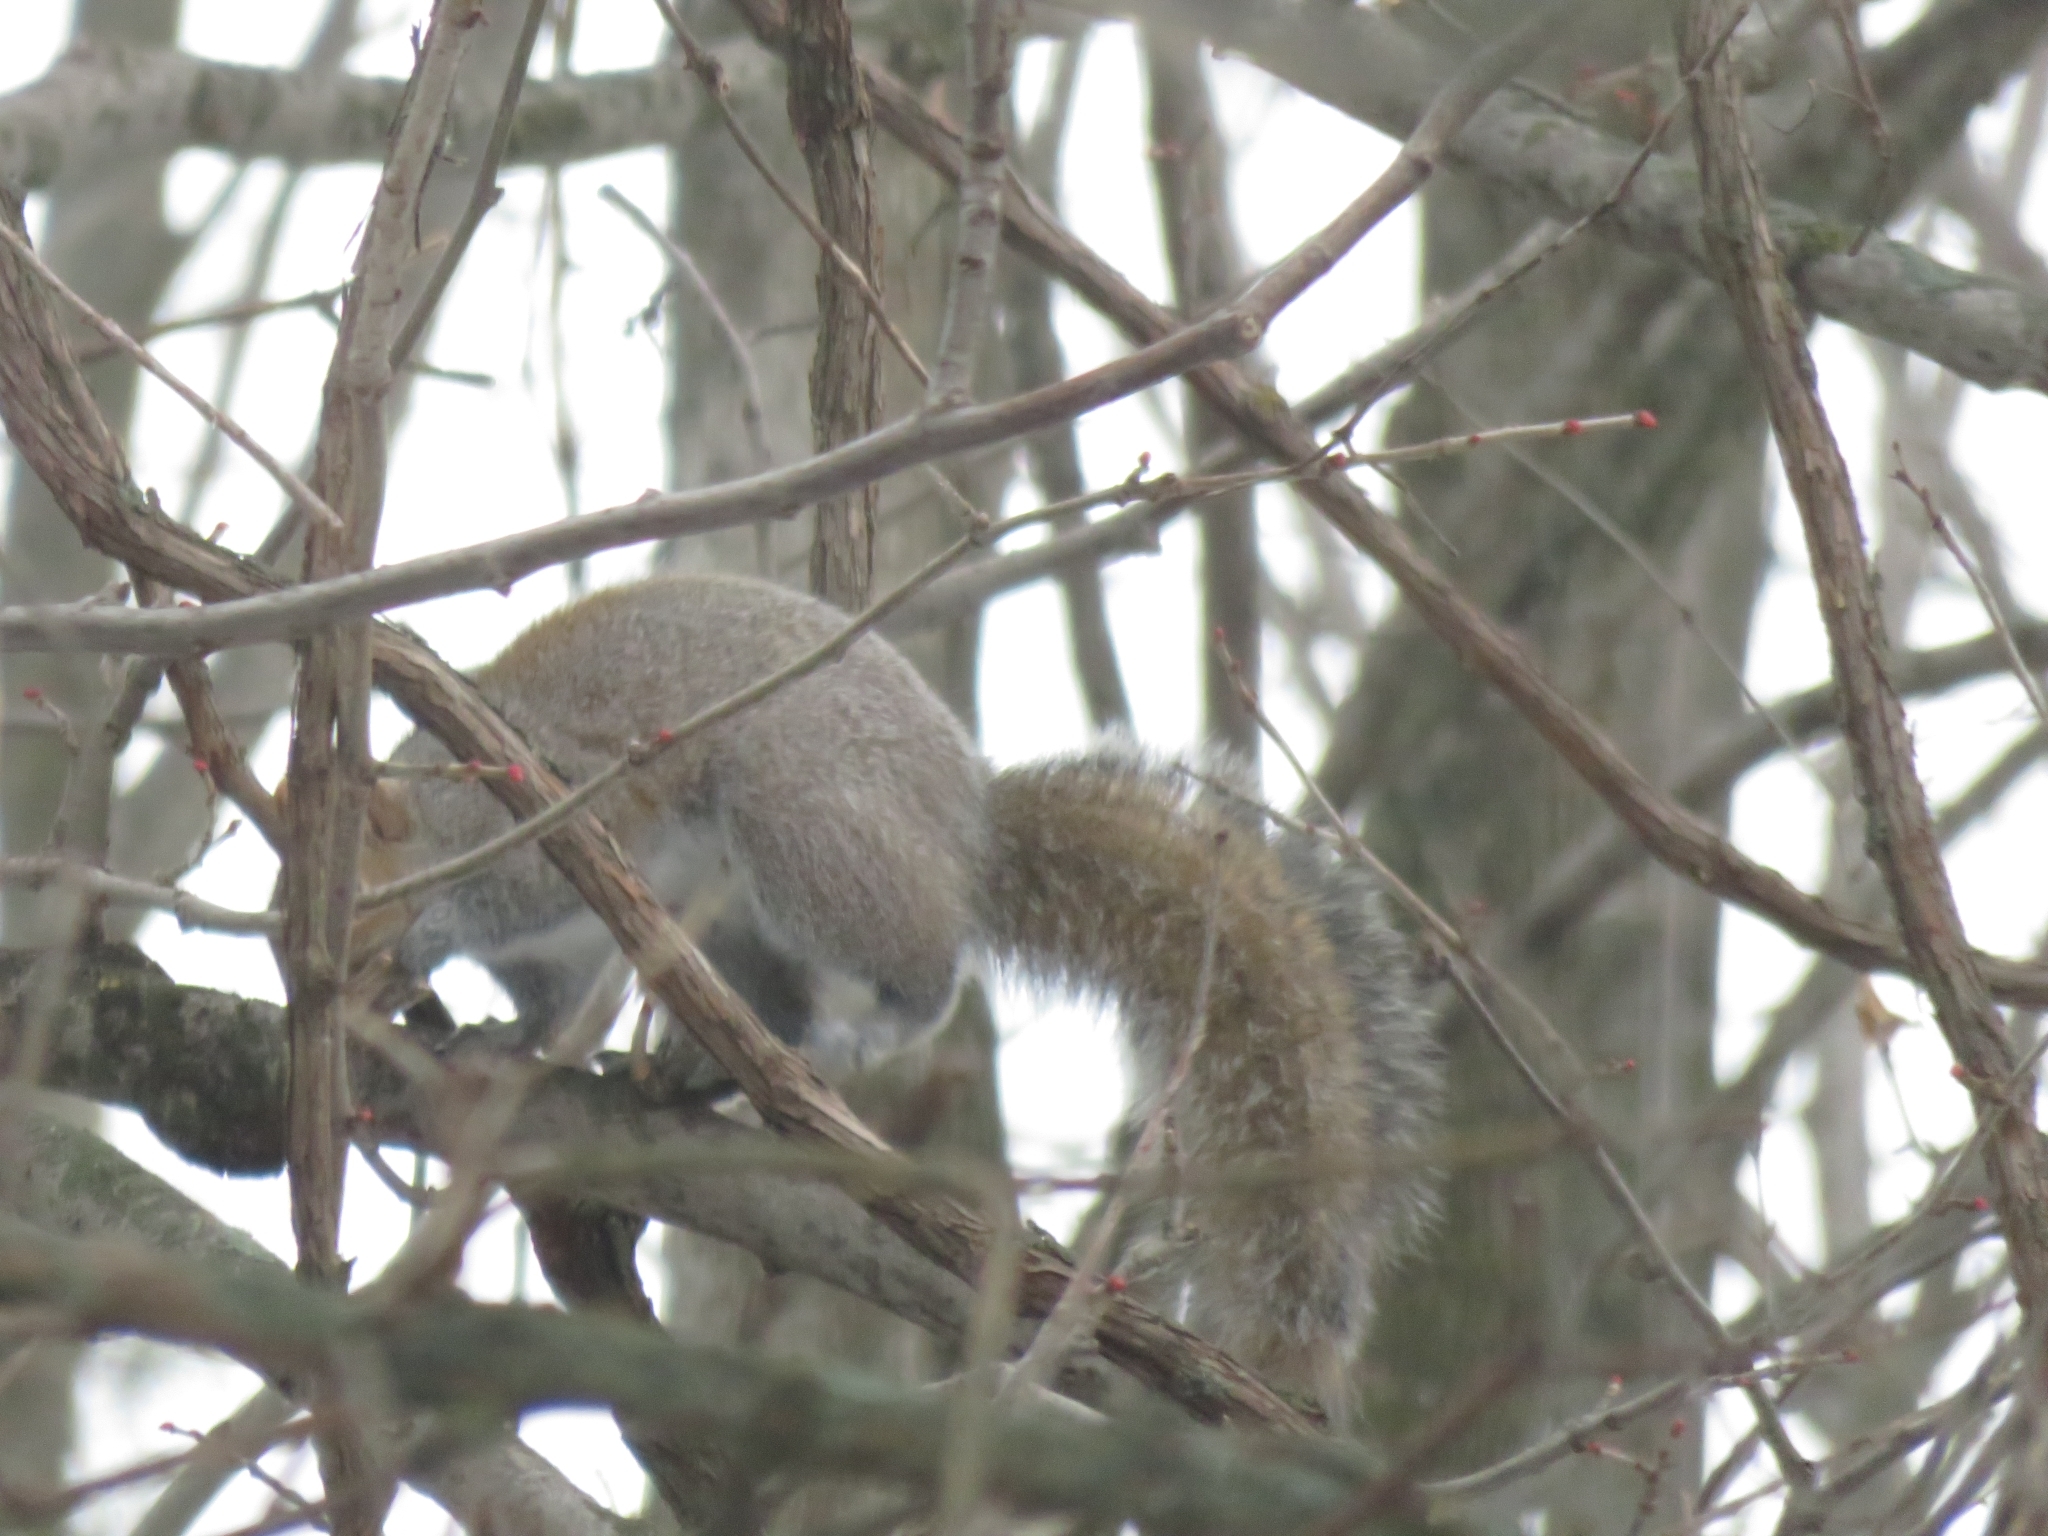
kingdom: Animalia
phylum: Chordata
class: Mammalia
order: Rodentia
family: Sciuridae
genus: Sciurus
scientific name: Sciurus carolinensis
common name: Eastern gray squirrel
